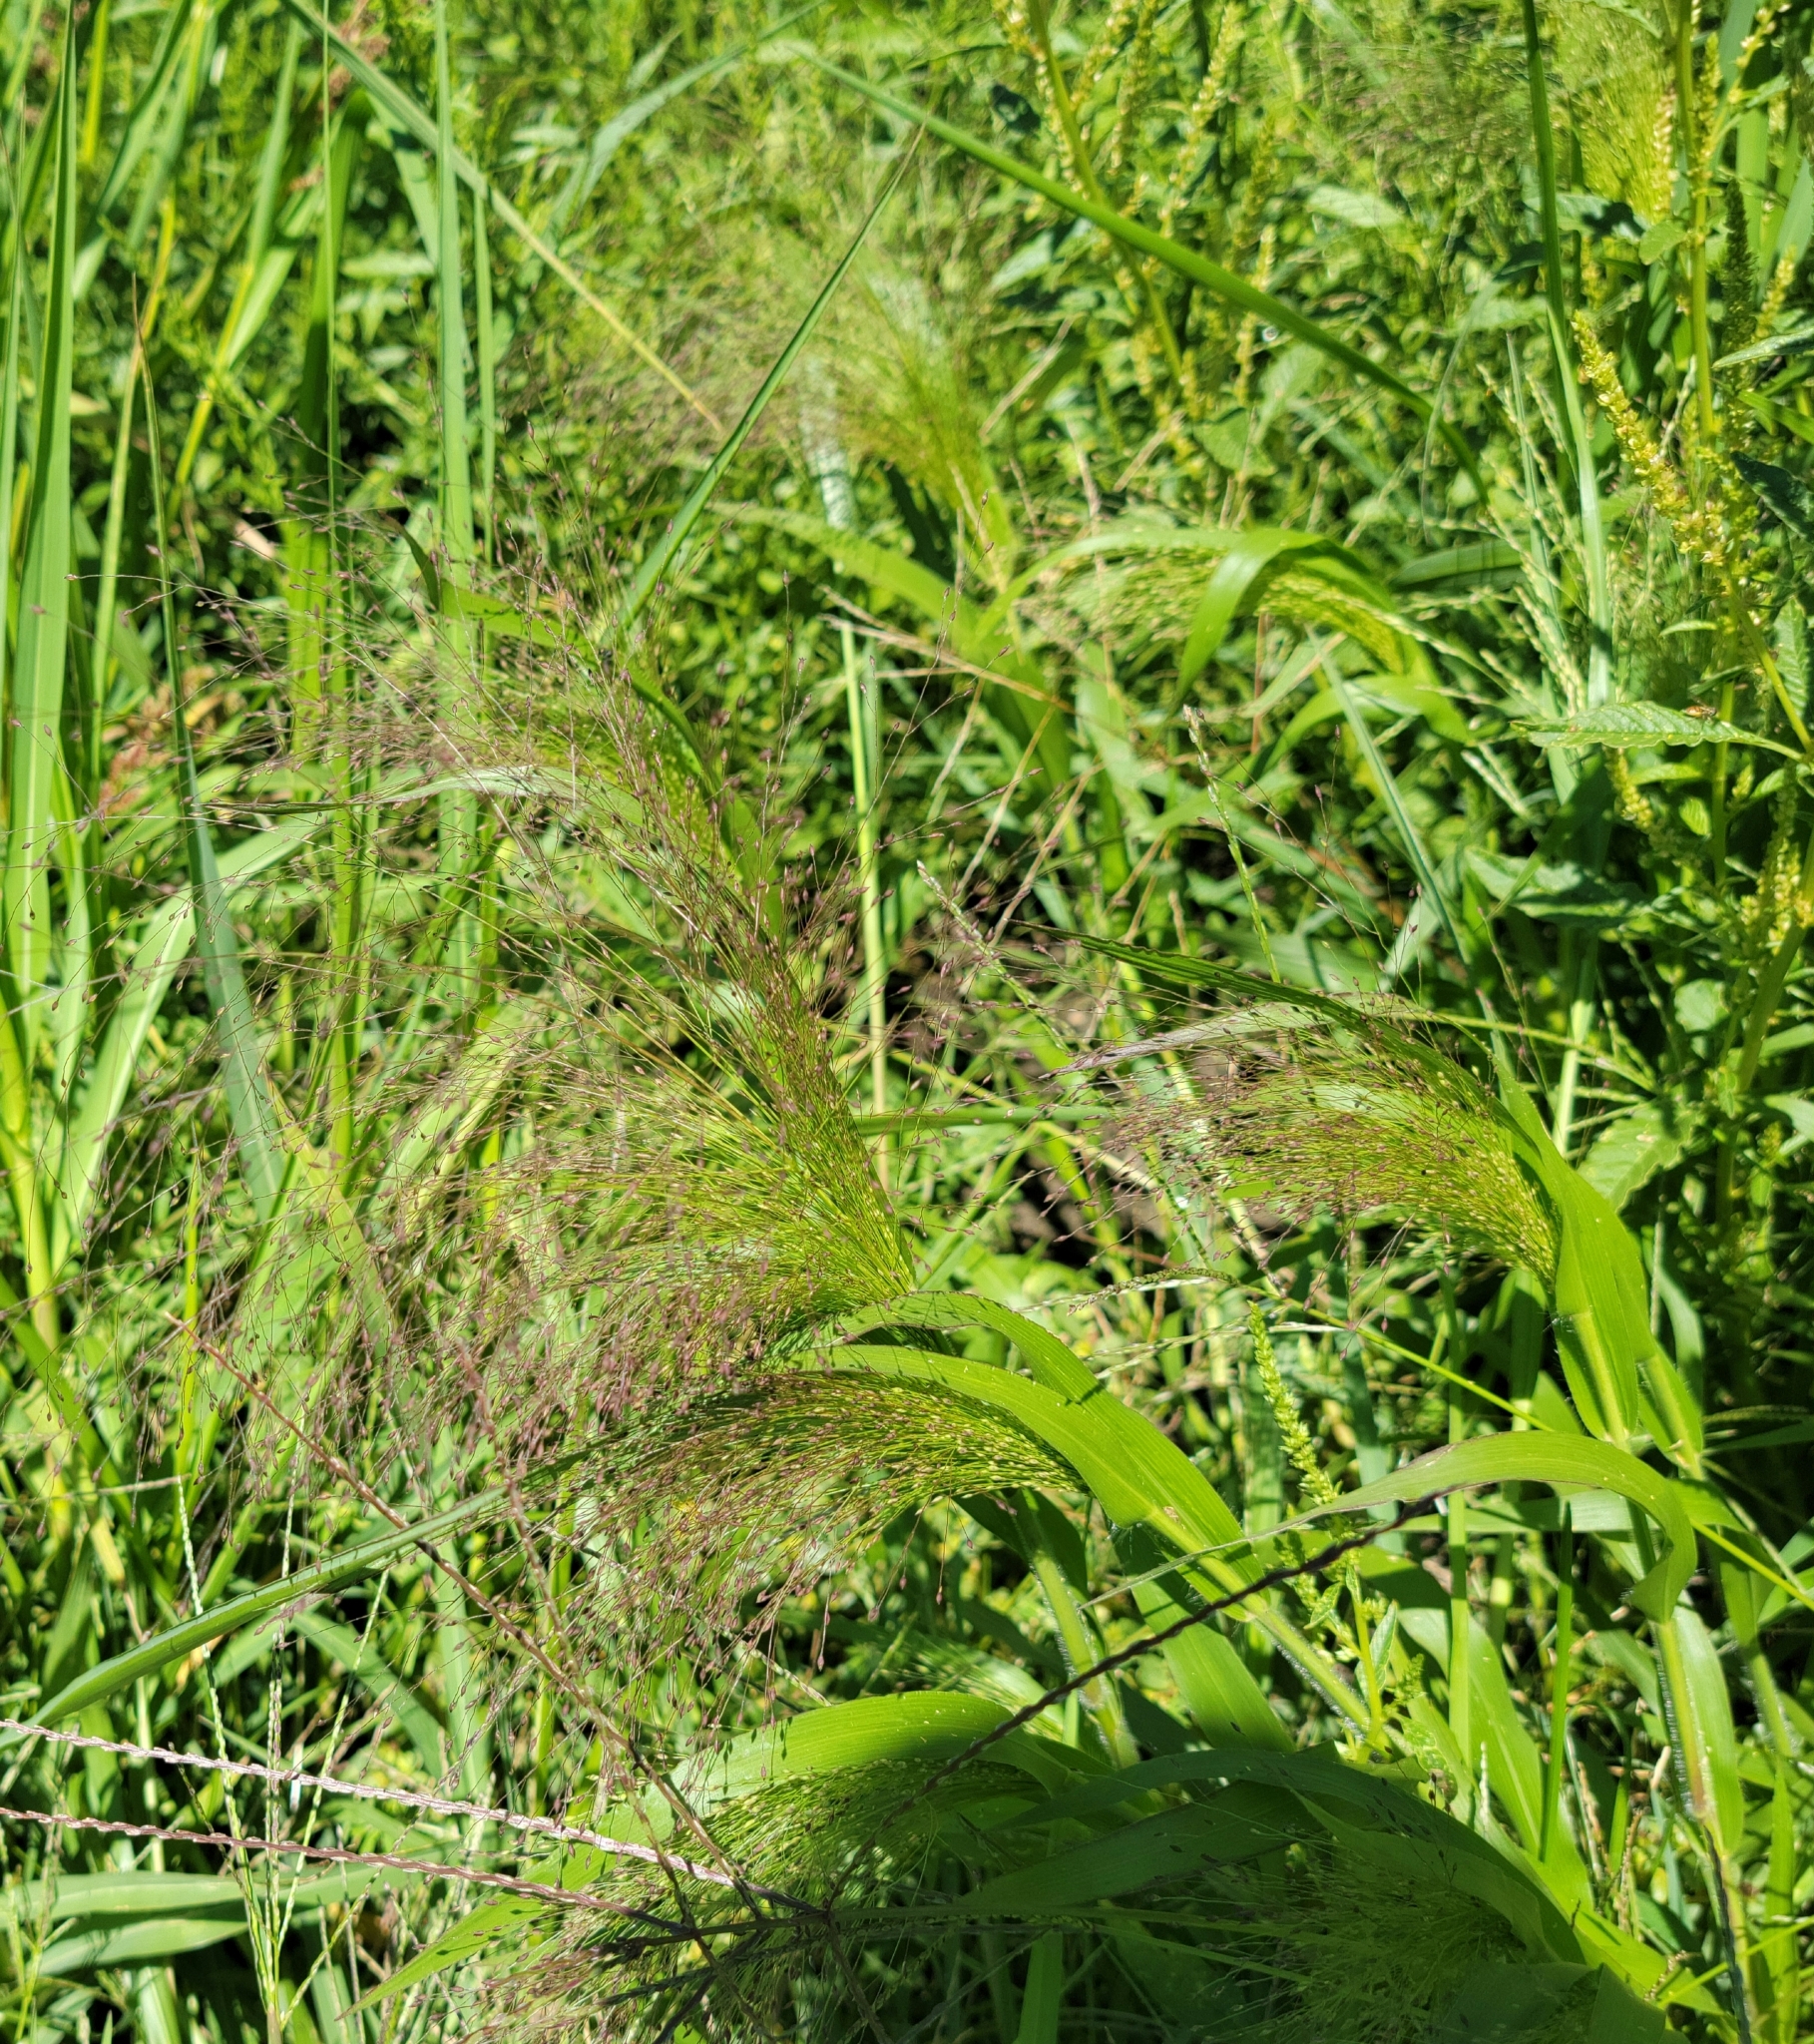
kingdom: Plantae
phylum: Tracheophyta
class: Liliopsida
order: Poales
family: Poaceae
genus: Panicum
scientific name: Panicum capillare
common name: Witch-grass
